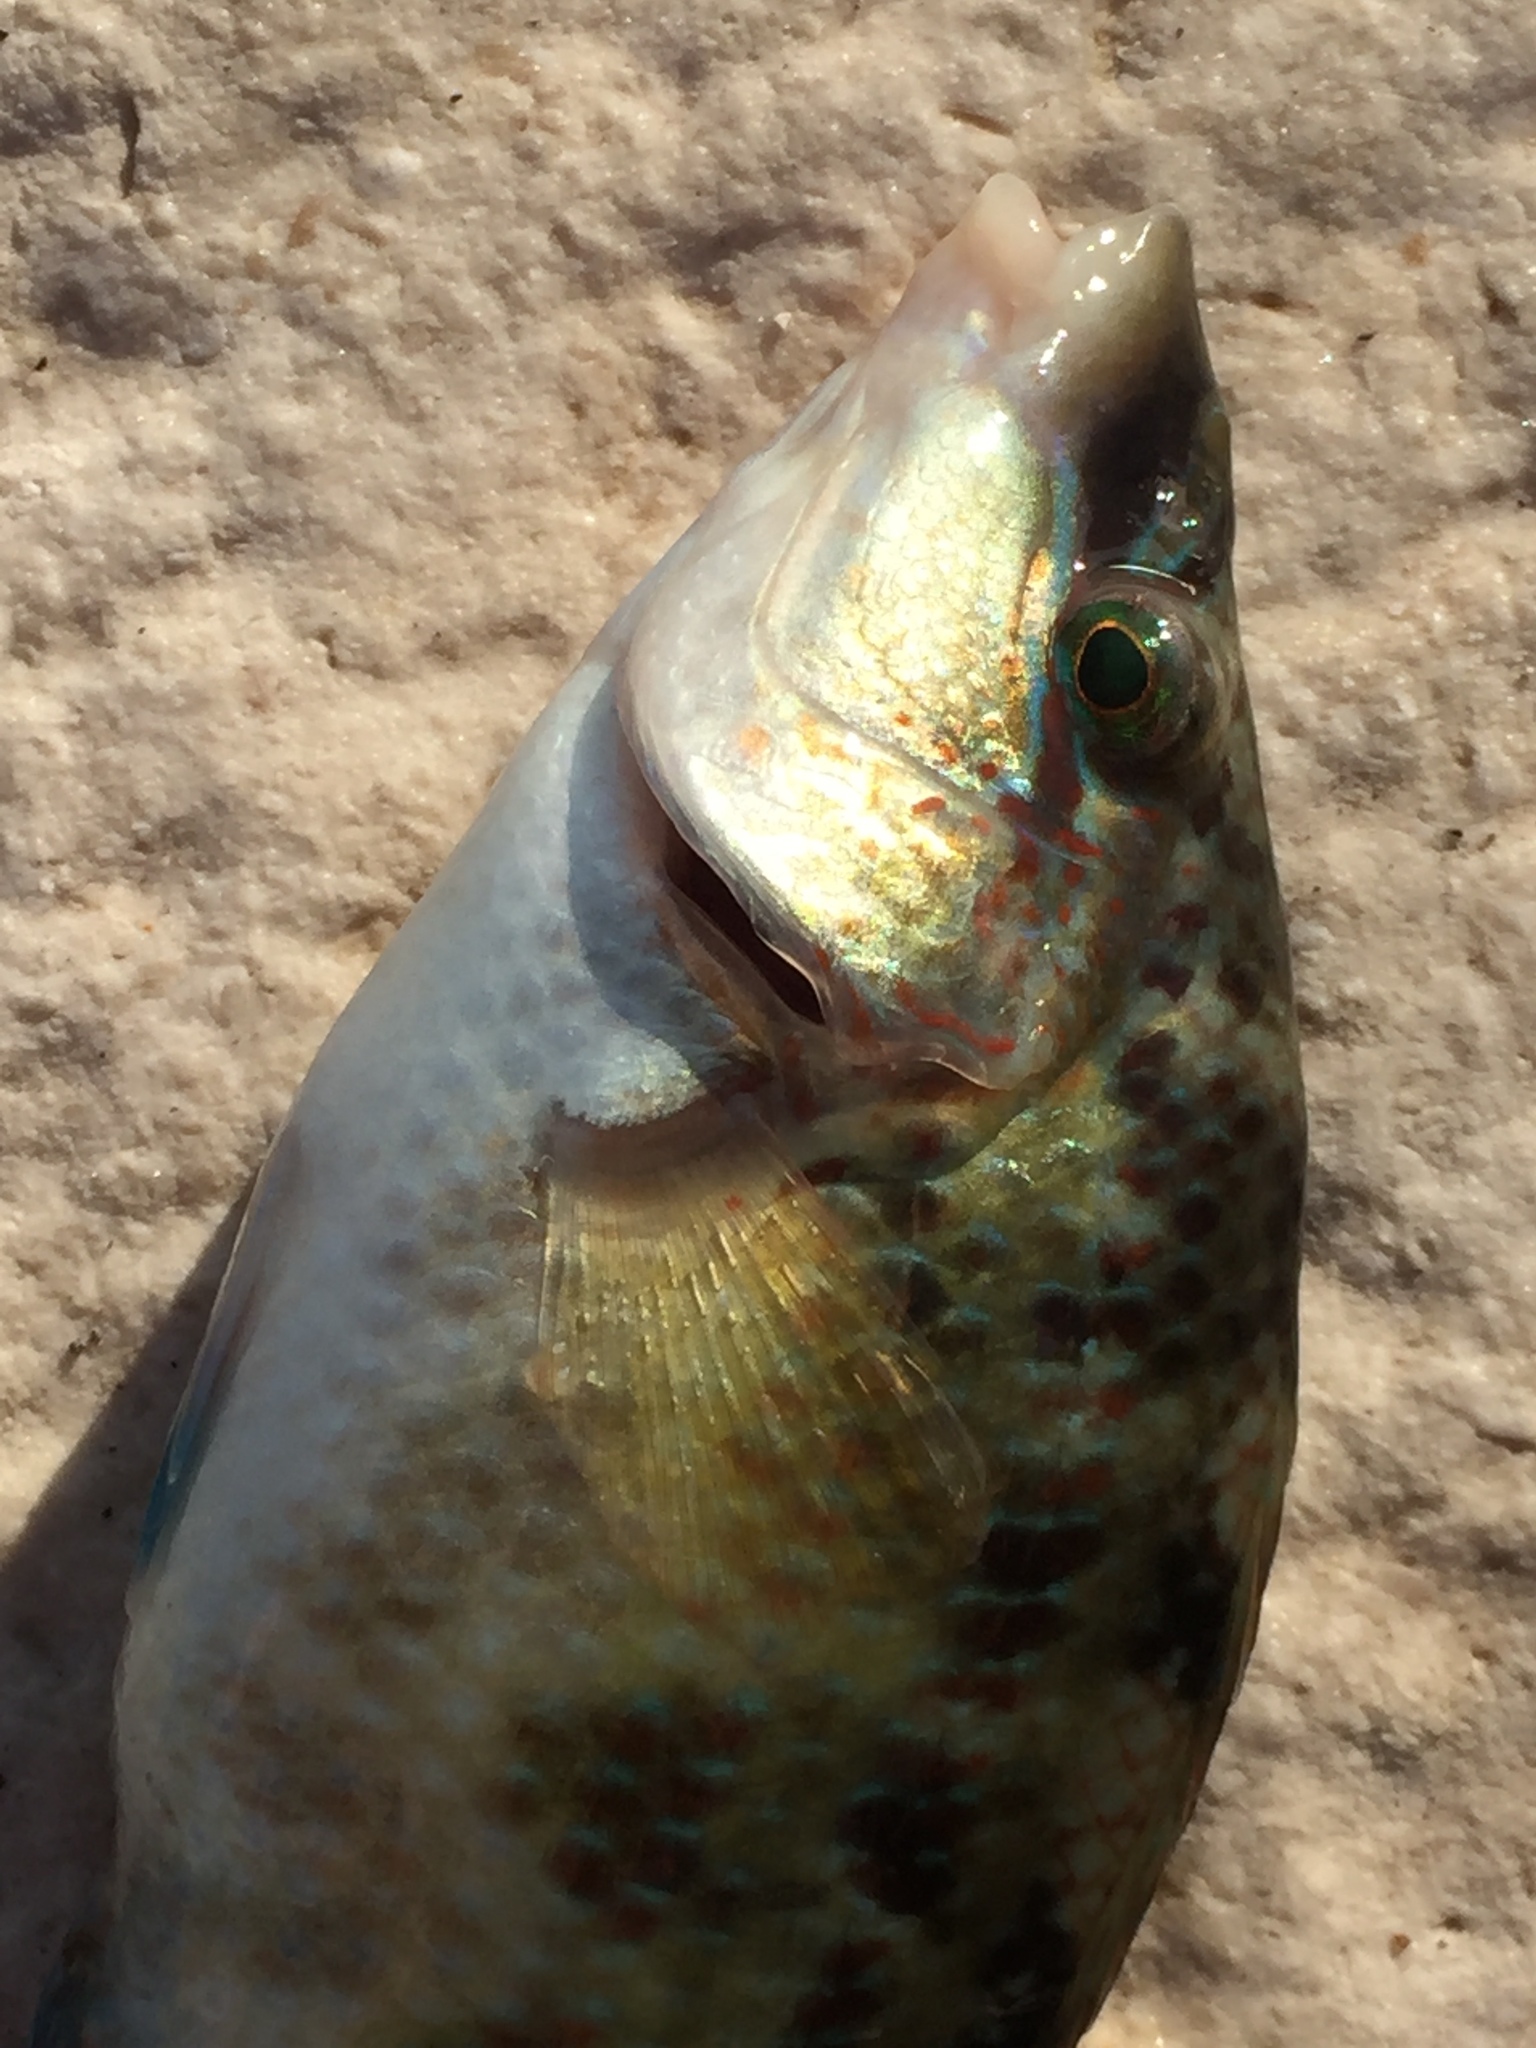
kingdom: Animalia
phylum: Chordata
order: Perciformes
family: Labridae
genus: Symphodus
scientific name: Symphodus tinca
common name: Peacock wrasse
